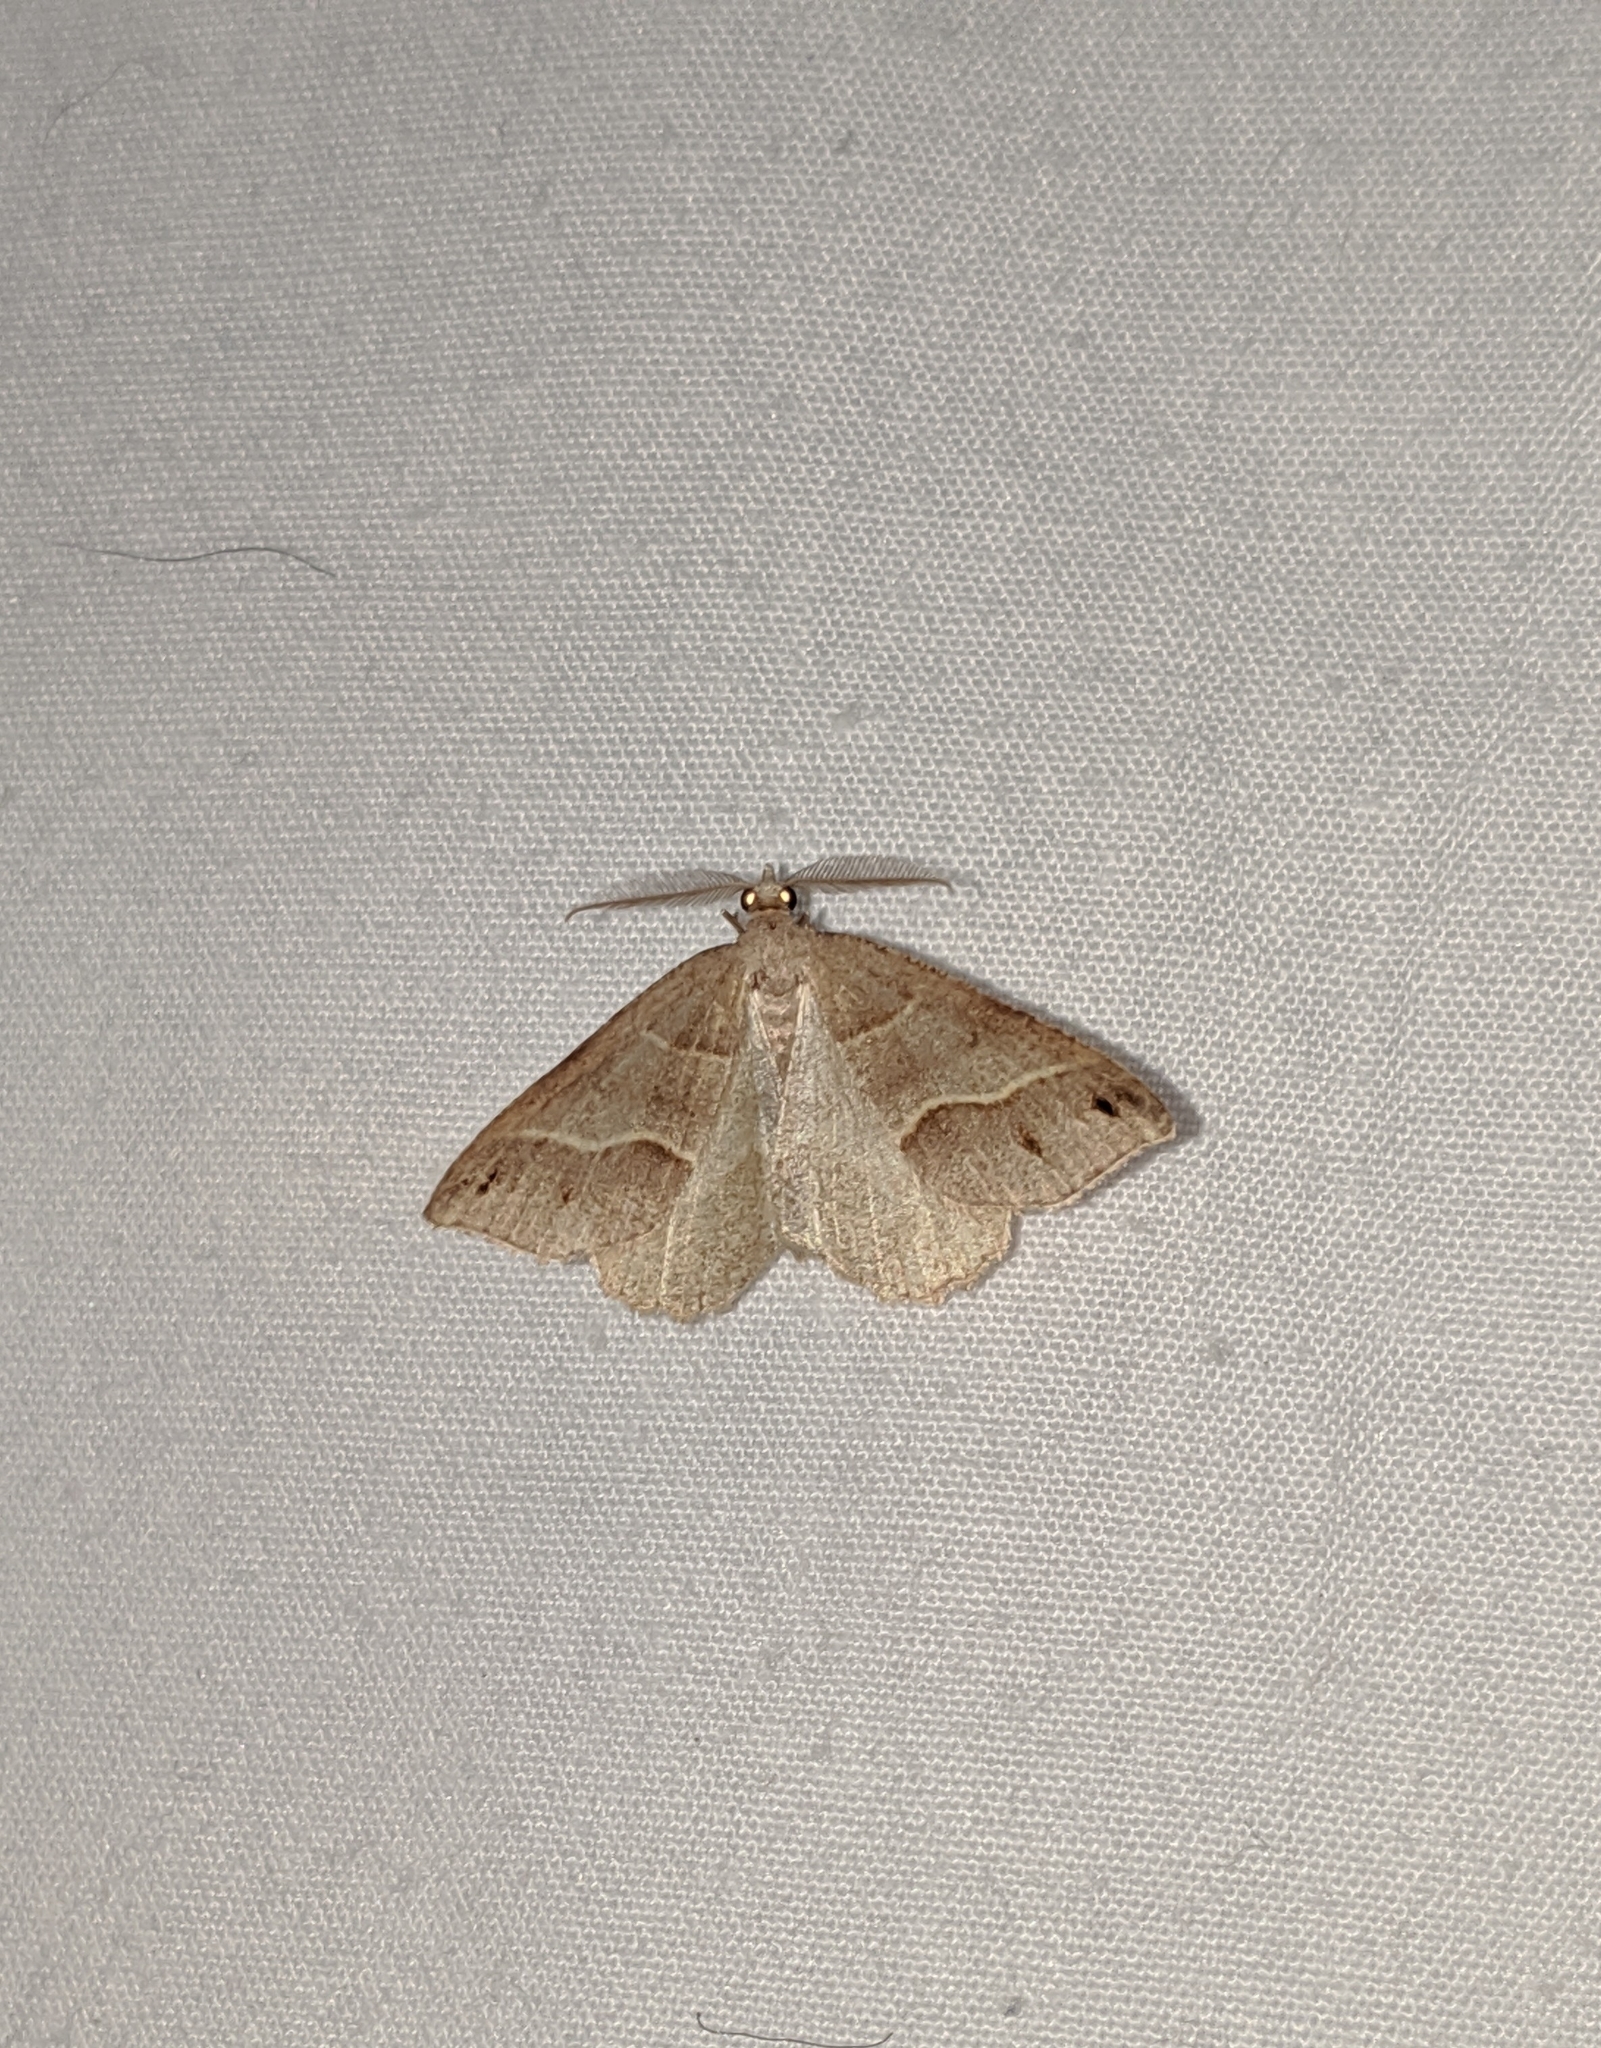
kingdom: Animalia
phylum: Arthropoda
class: Insecta
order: Lepidoptera
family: Geometridae
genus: Macaria
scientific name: Macaria lorquinaria
